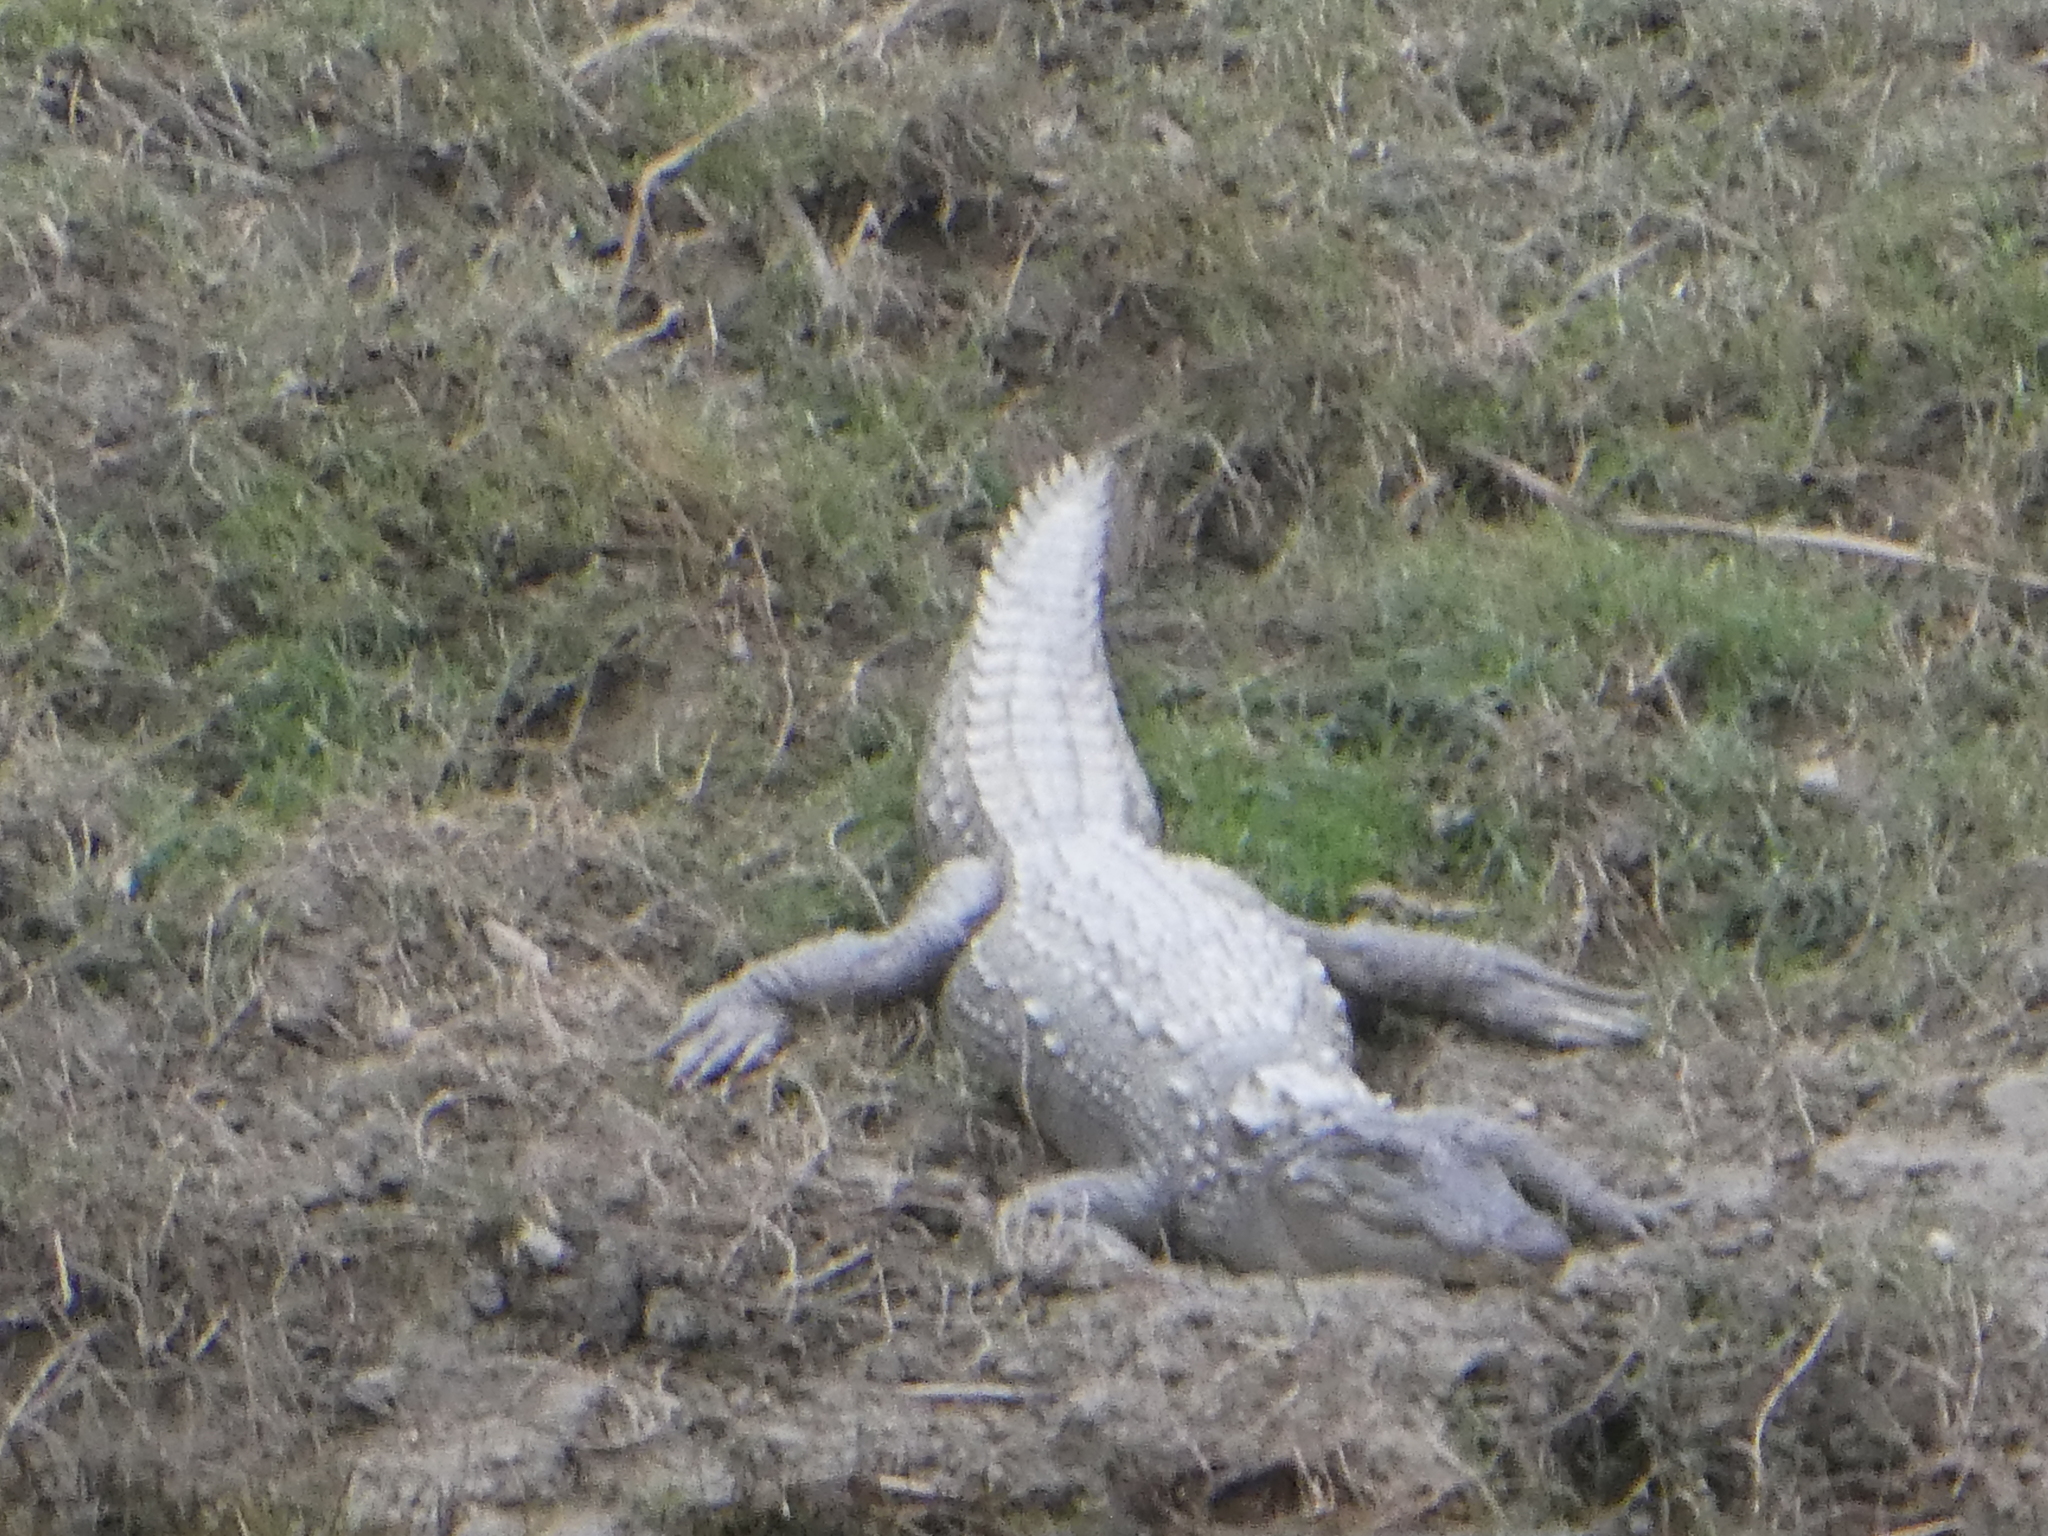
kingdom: Animalia
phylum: Chordata
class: Crocodylia
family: Crocodylidae
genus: Crocodylus
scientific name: Crocodylus palustris
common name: Mugger crocodile
